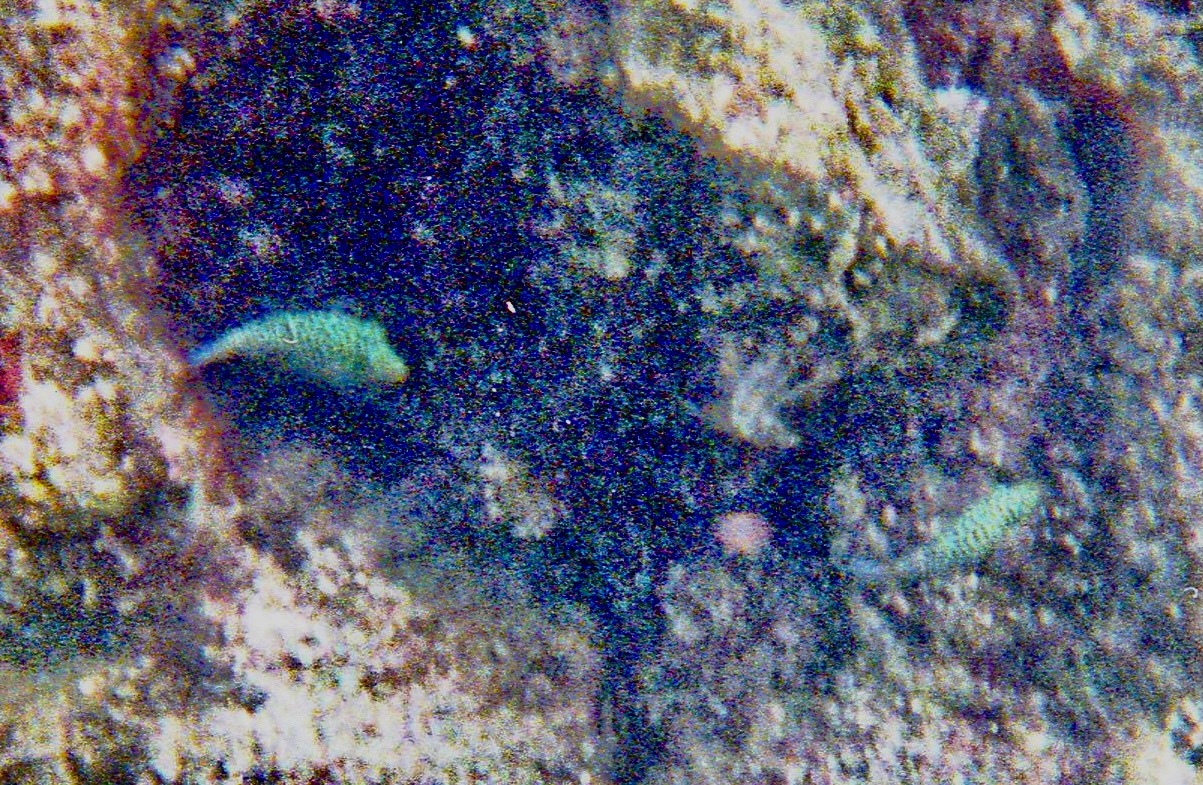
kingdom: Animalia
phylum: Chordata
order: Tetraodontiformes
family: Tetraodontidae
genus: Canthigaster
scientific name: Canthigaster jactator
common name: Hawaiian whitespotted toby
